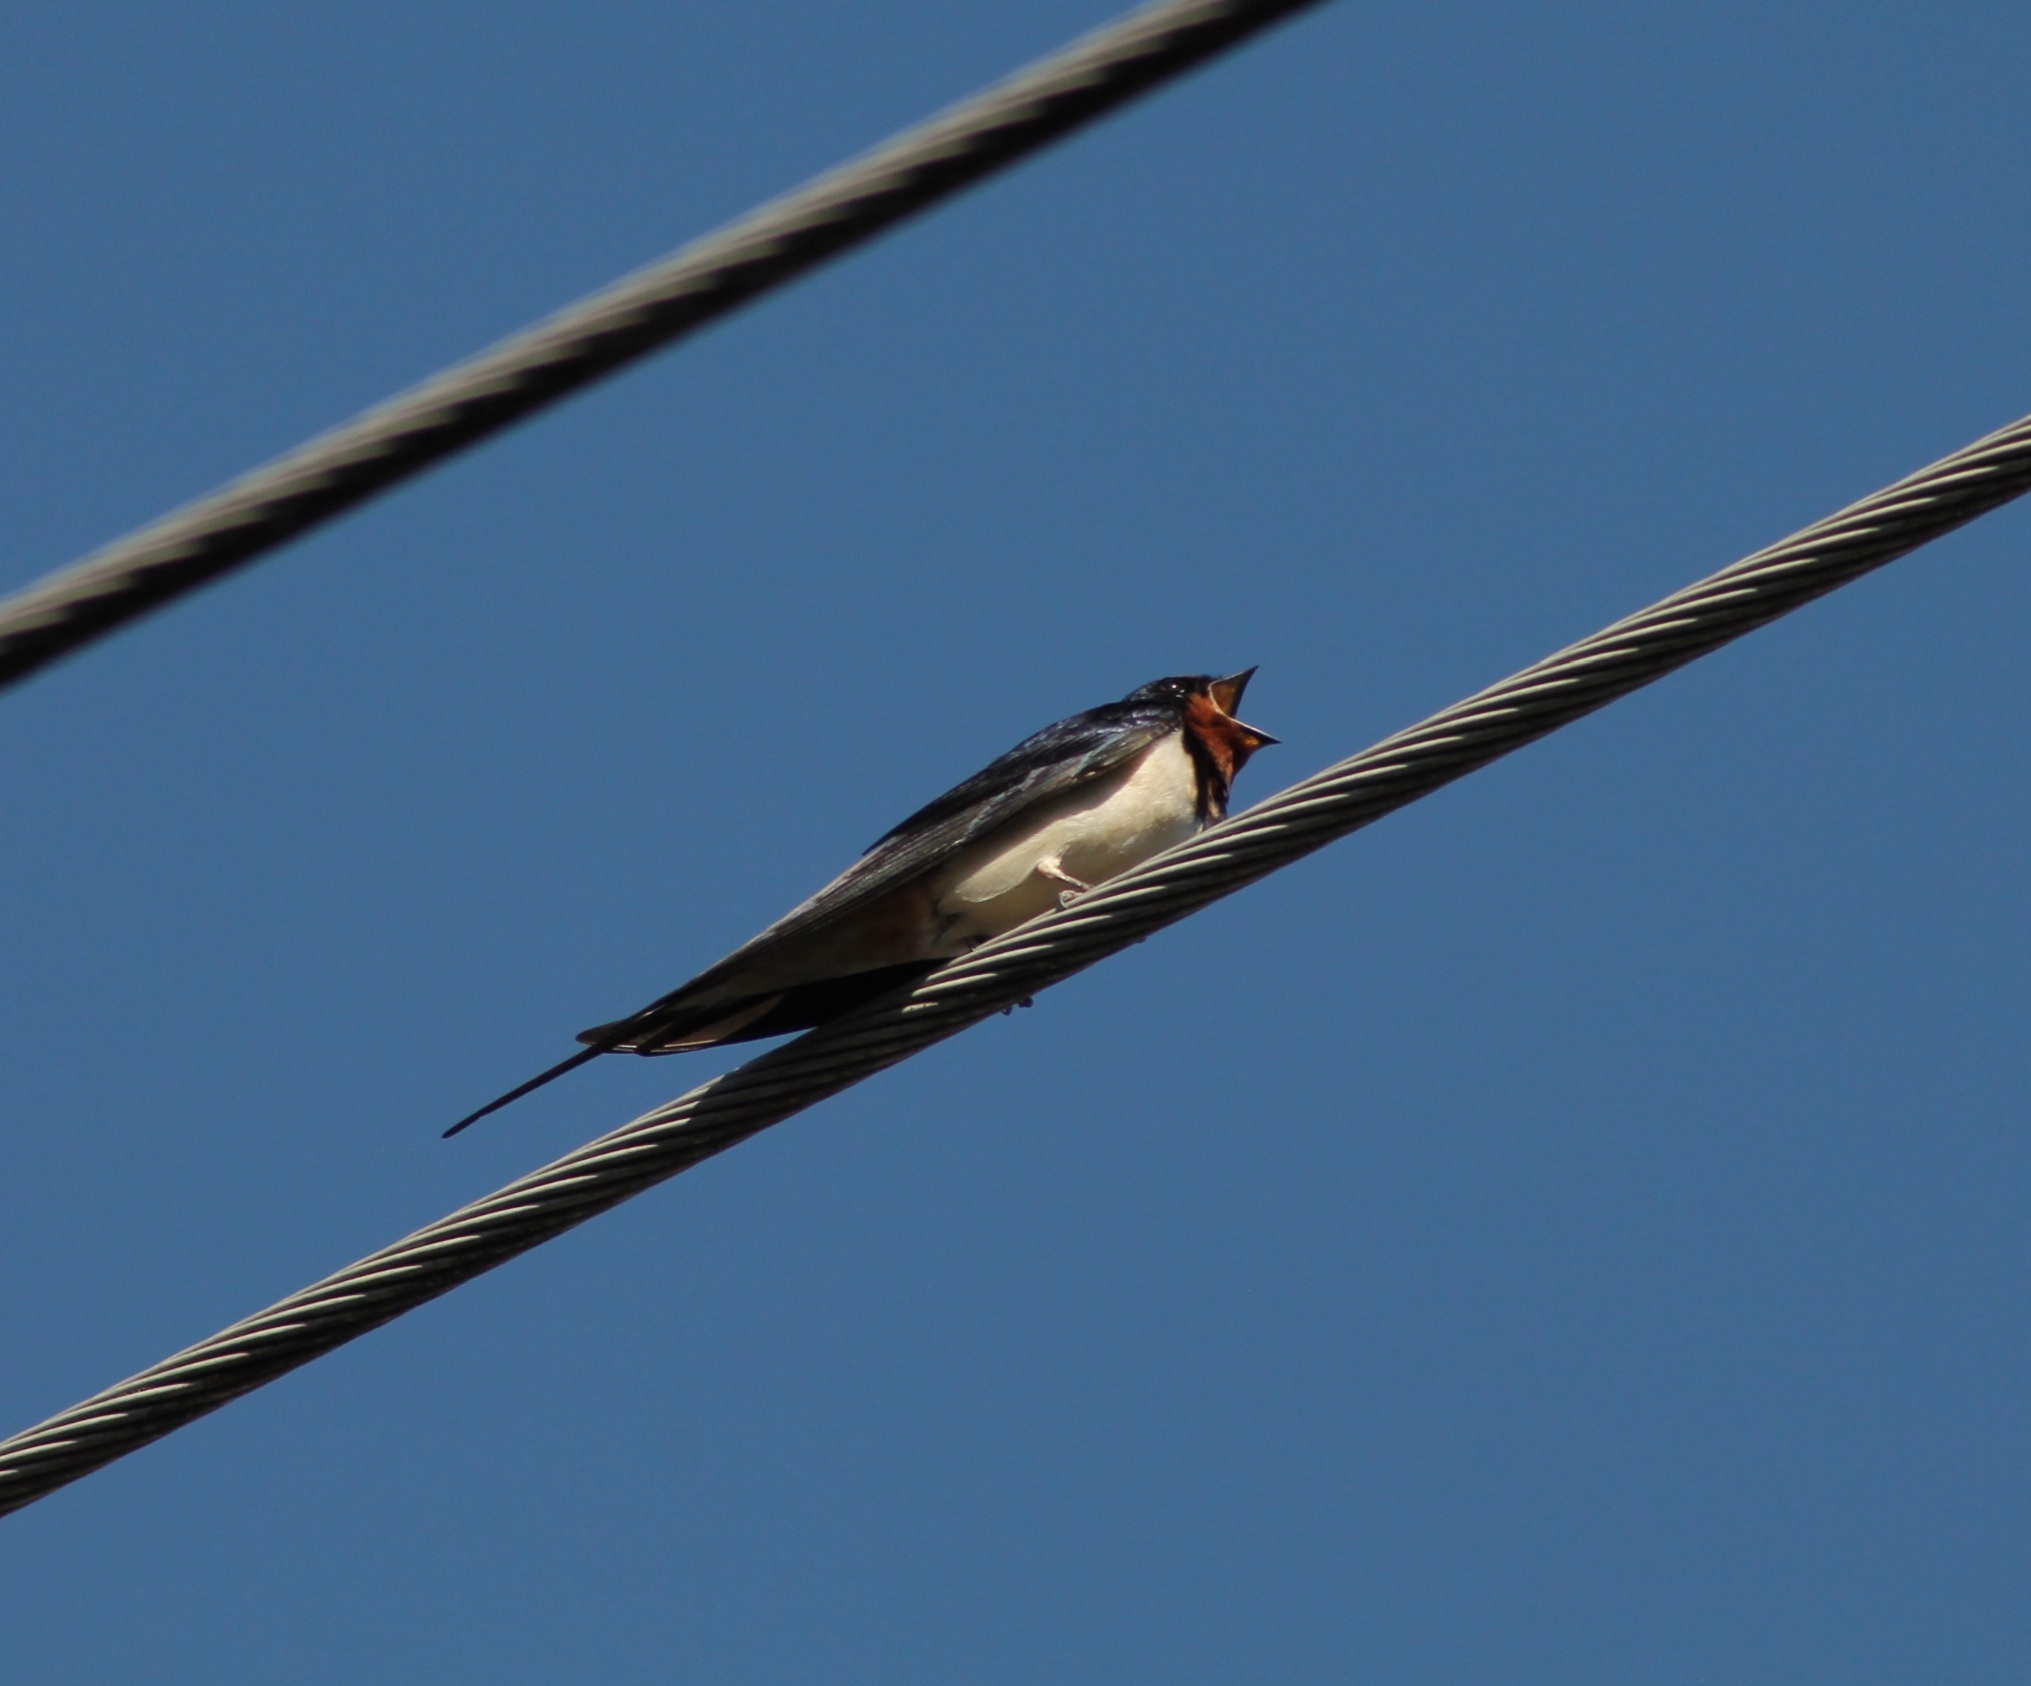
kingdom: Animalia
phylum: Chordata
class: Aves
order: Passeriformes
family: Hirundinidae
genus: Hirundo
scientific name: Hirundo rustica
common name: Barn swallow
